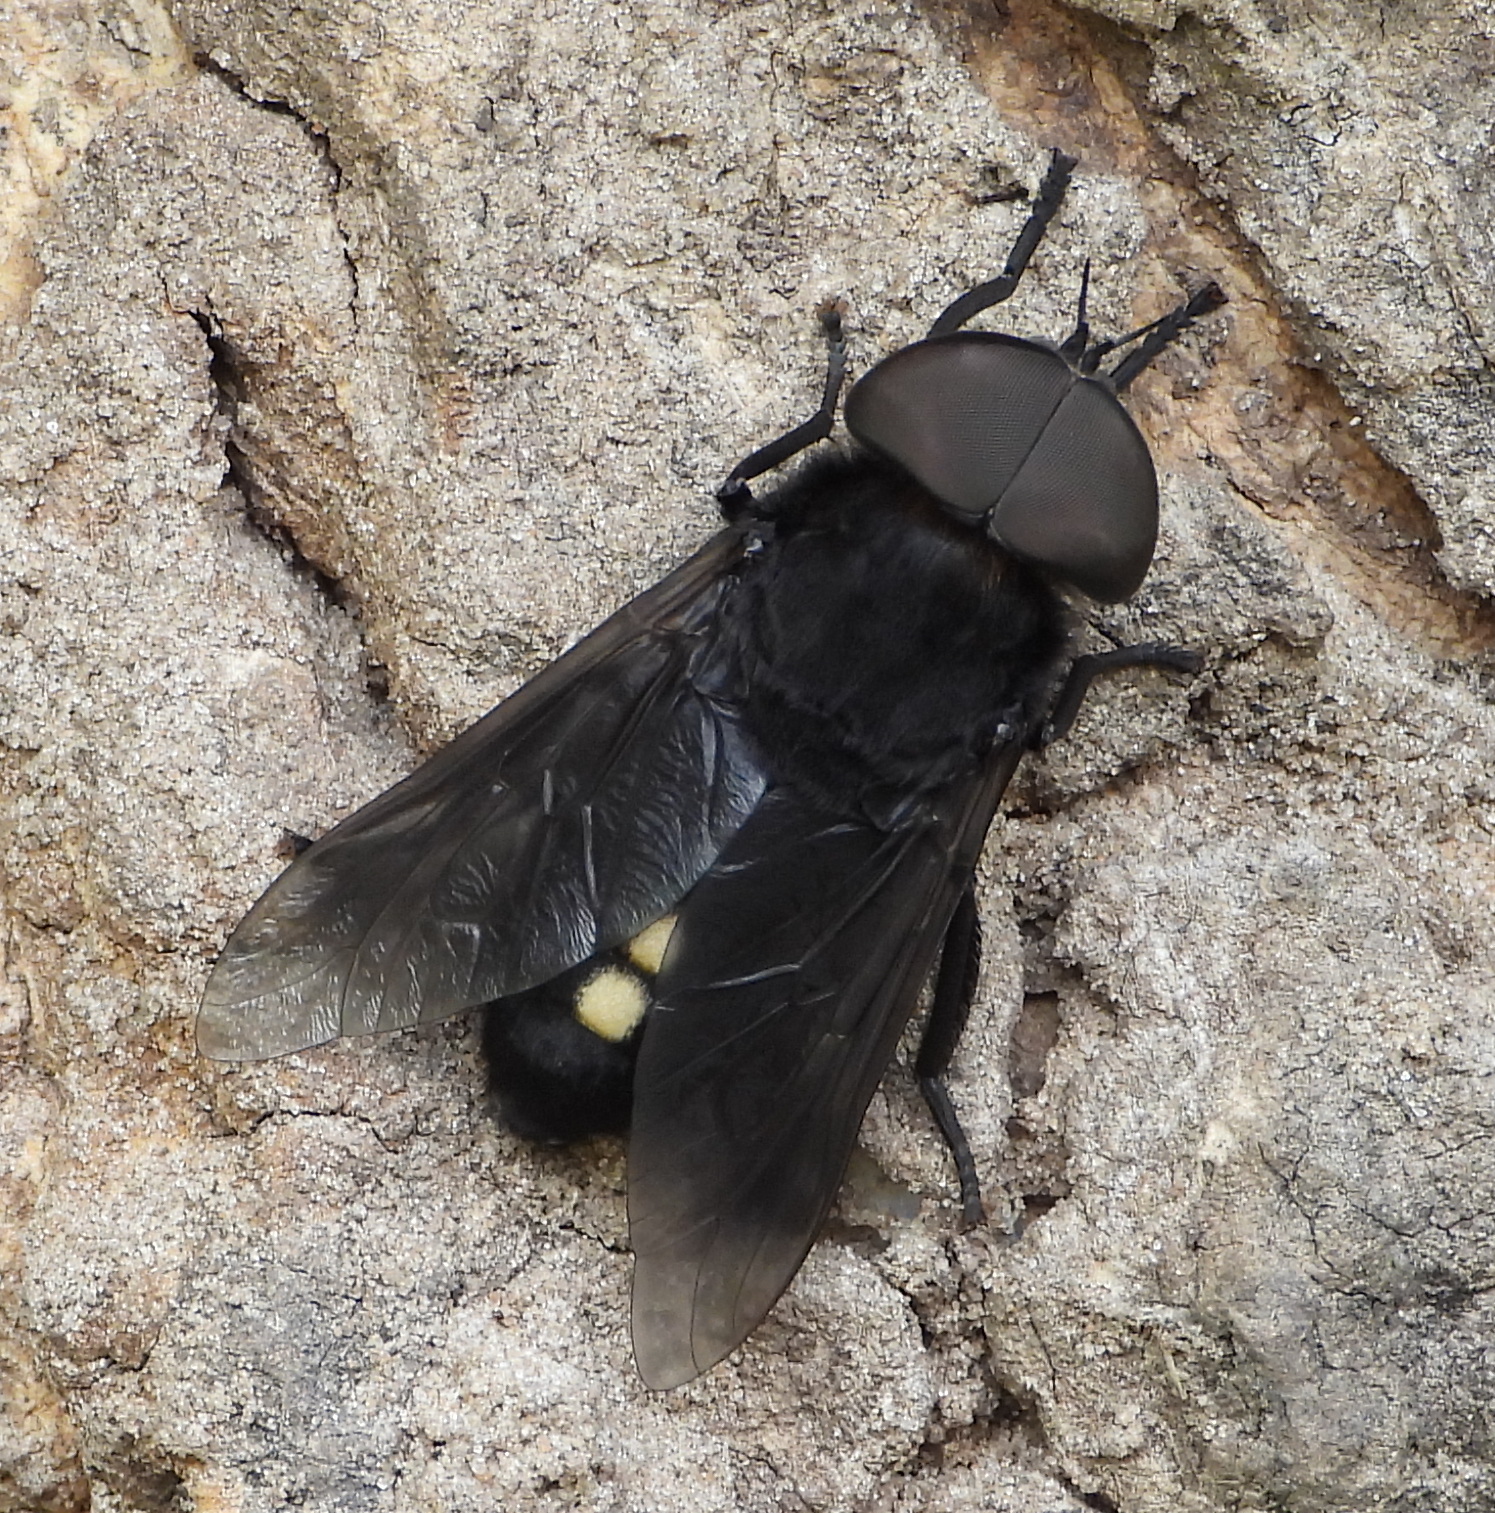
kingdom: Animalia
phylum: Arthropoda
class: Insecta
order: Diptera
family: Tabanidae
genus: Tabanus
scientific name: Tabanus biguttatus
